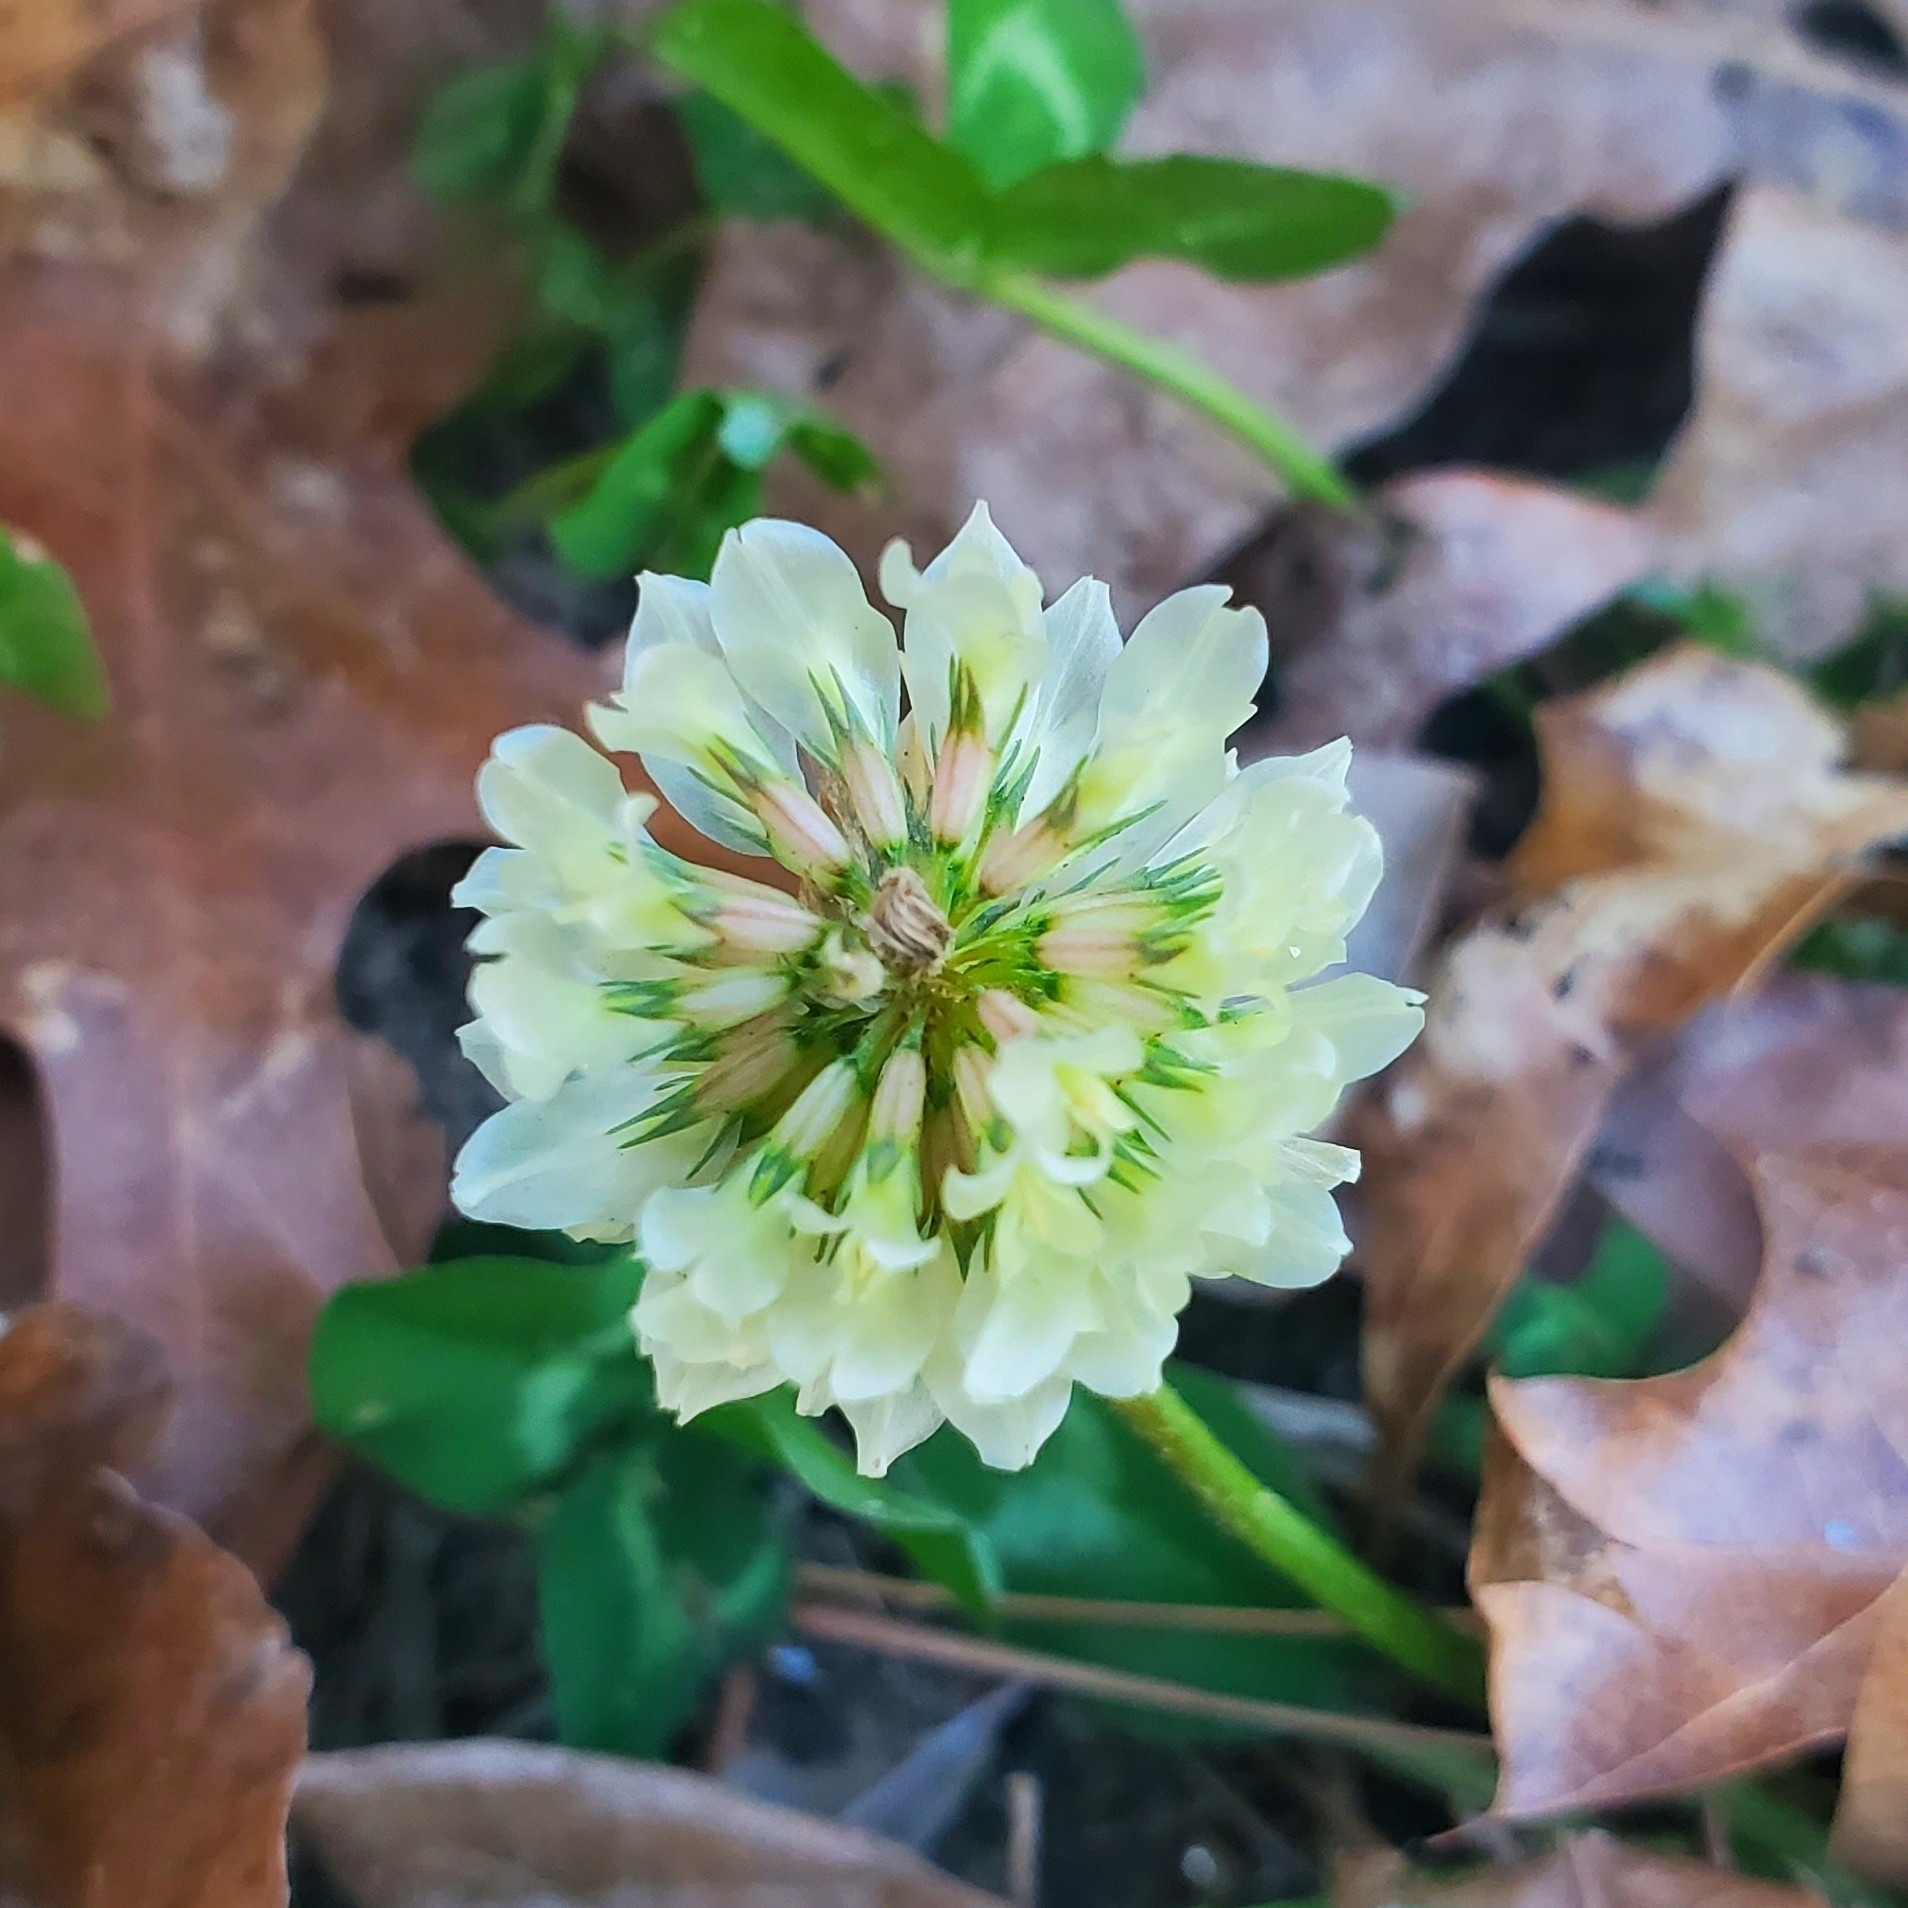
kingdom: Plantae
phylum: Tracheophyta
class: Magnoliopsida
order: Fabales
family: Fabaceae
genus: Trifolium
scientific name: Trifolium repens
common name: White clover
